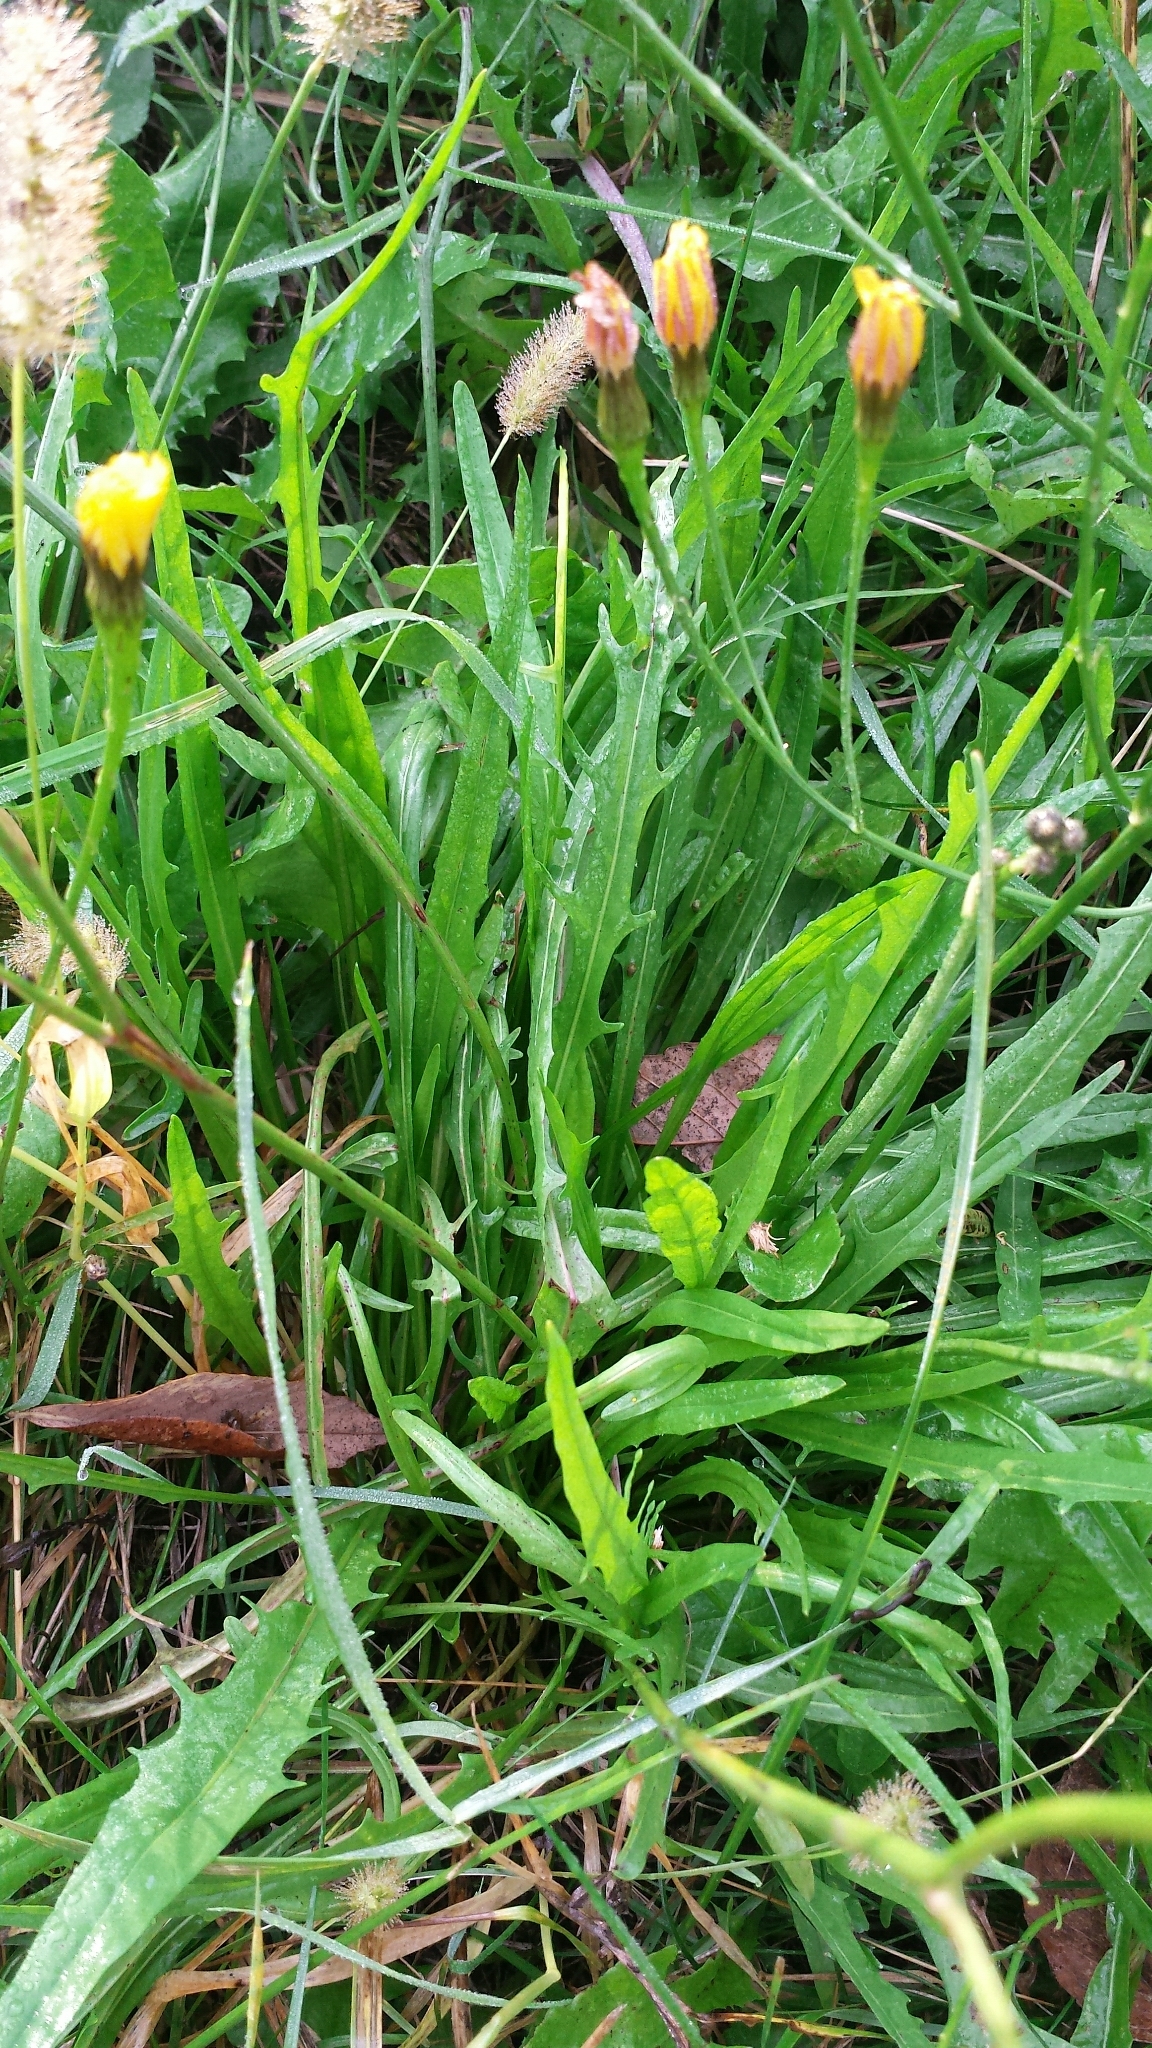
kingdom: Plantae
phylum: Tracheophyta
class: Magnoliopsida
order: Asterales
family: Asteraceae
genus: Scorzoneroides
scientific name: Scorzoneroides autumnalis
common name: Autumn hawkbit
